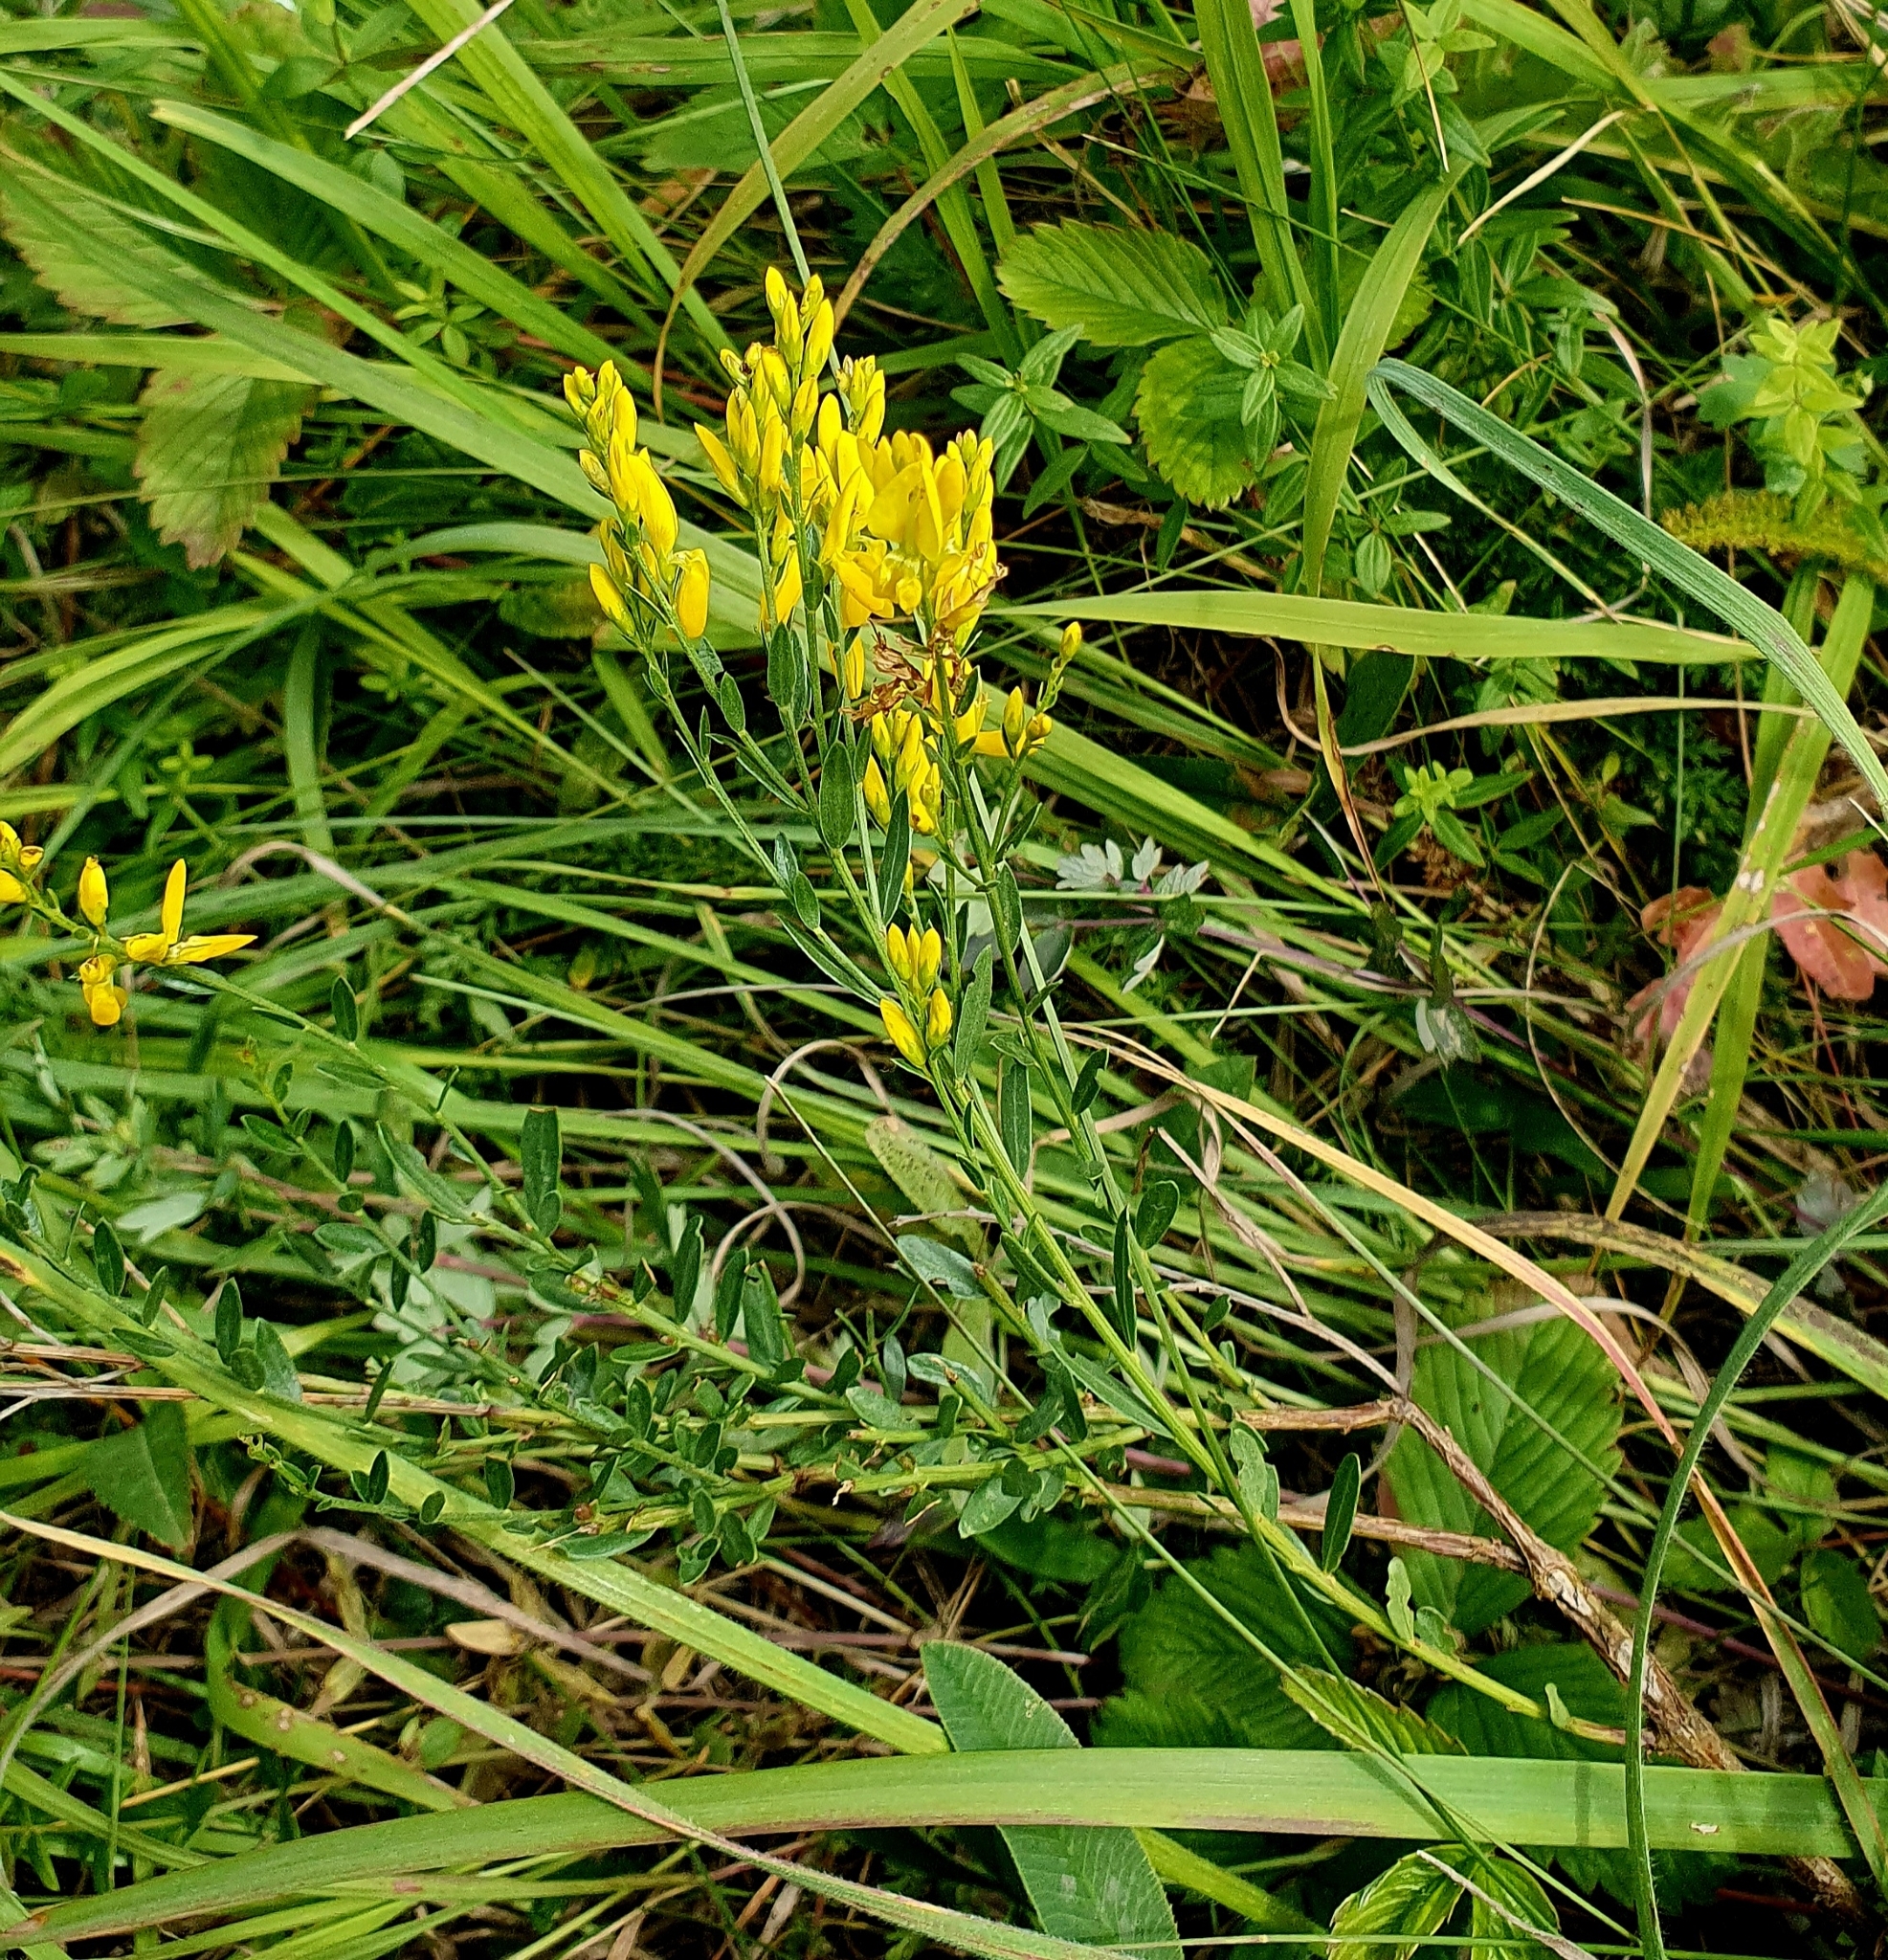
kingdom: Plantae
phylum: Tracheophyta
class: Magnoliopsida
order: Fabales
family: Fabaceae
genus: Genista
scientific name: Genista tinctoria
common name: Dyer's greenweed
